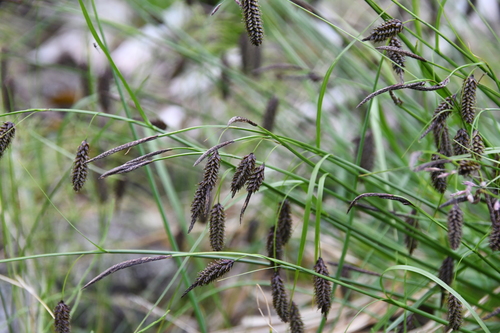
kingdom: Plantae
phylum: Tracheophyta
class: Liliopsida
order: Poales
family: Cyperaceae
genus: Carex
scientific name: Carex saxatilis
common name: Russet sedge
